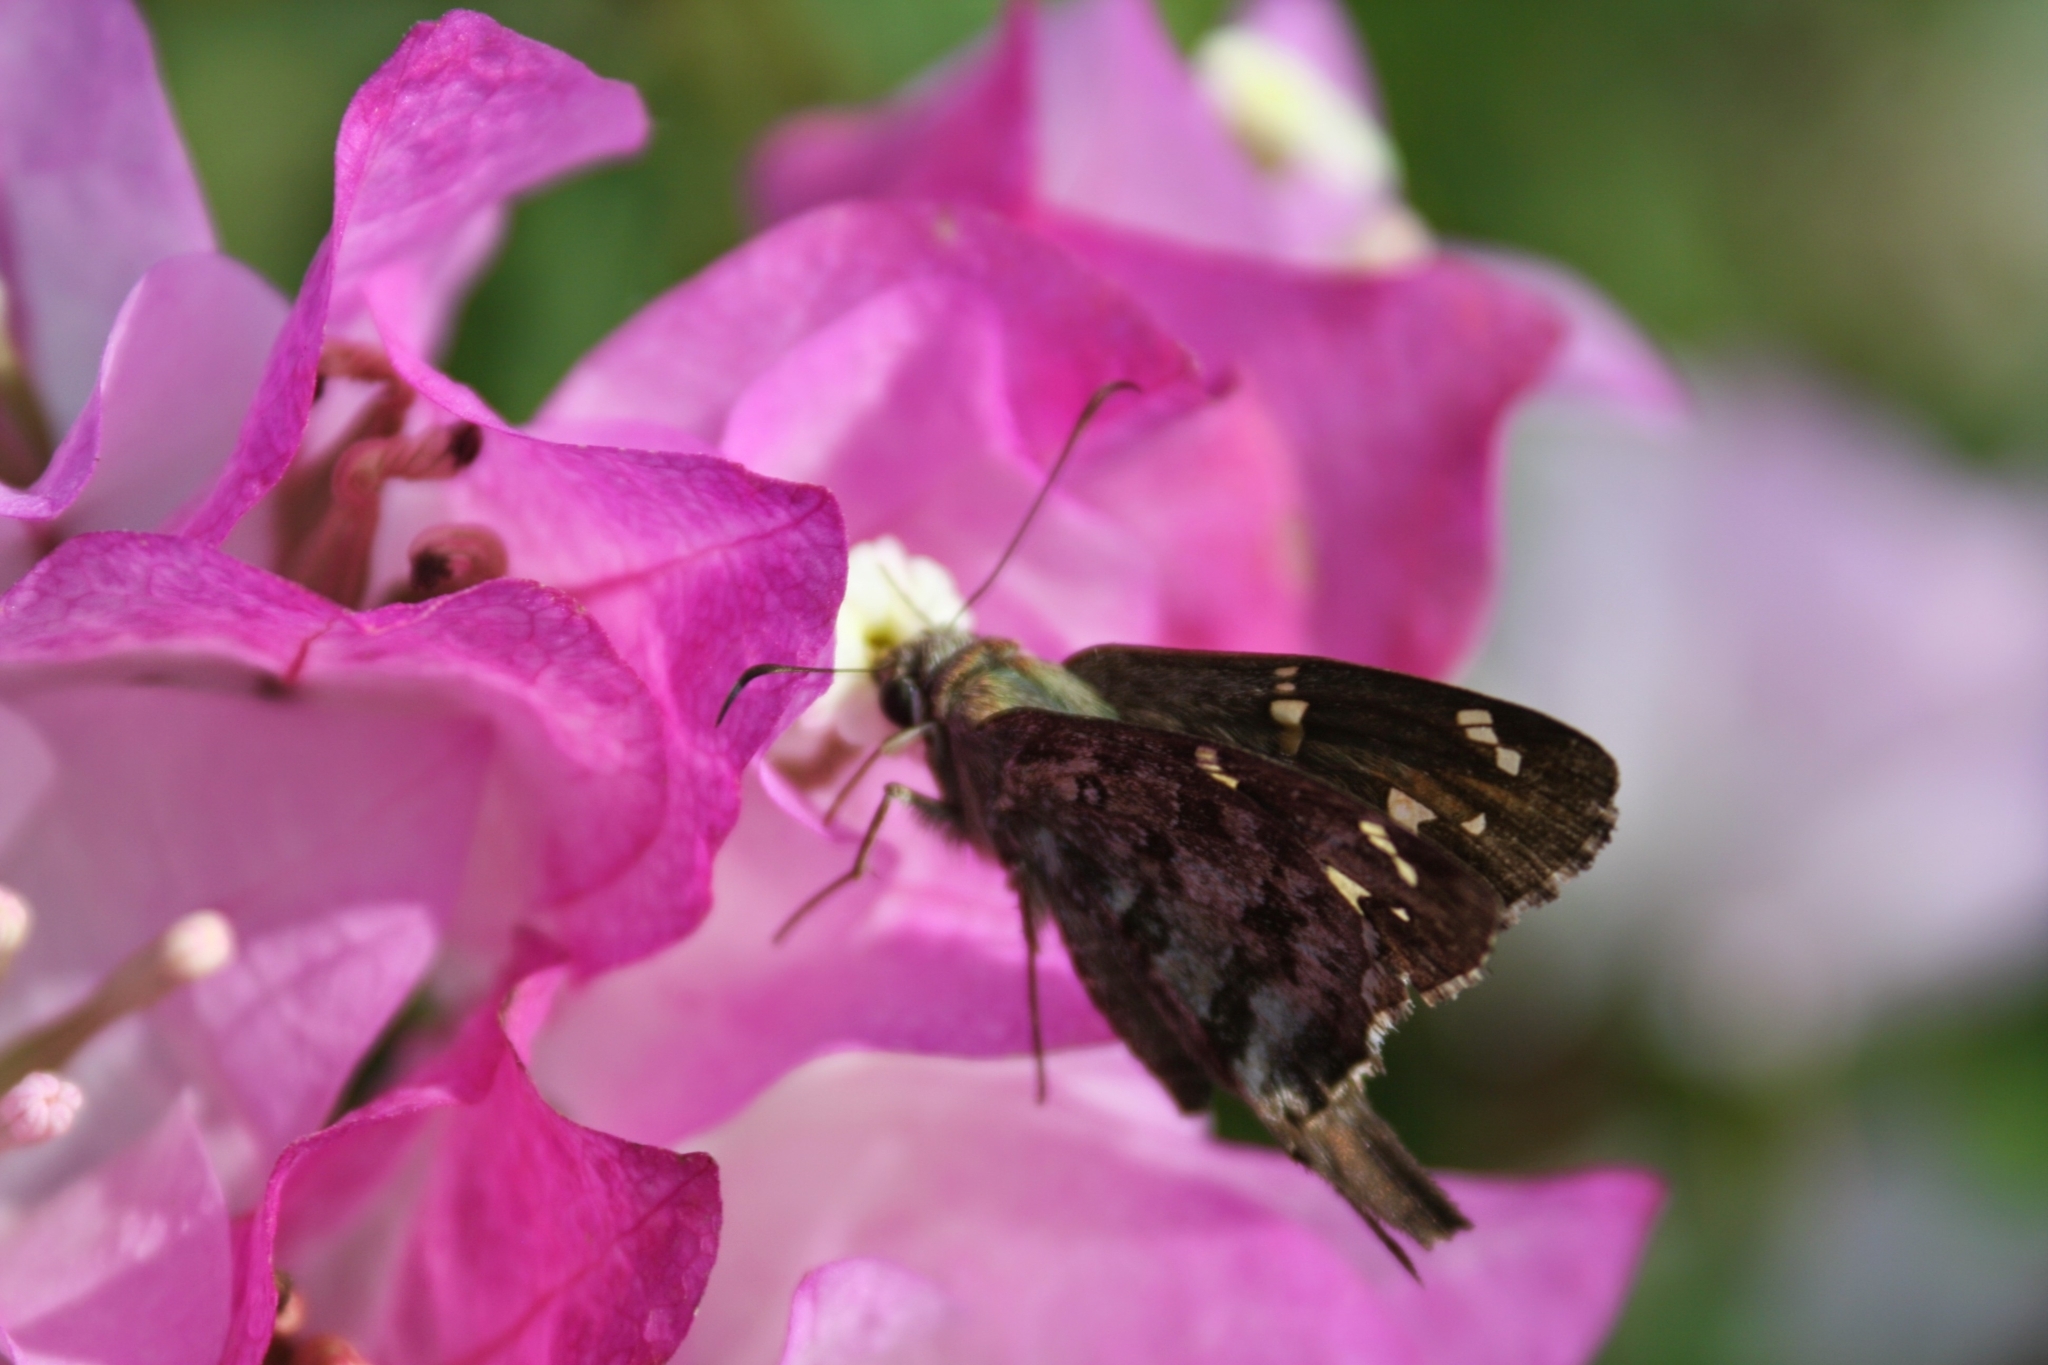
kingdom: Animalia
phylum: Arthropoda
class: Insecta
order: Lepidoptera
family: Hesperiidae
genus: Thorybes
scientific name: Thorybes
